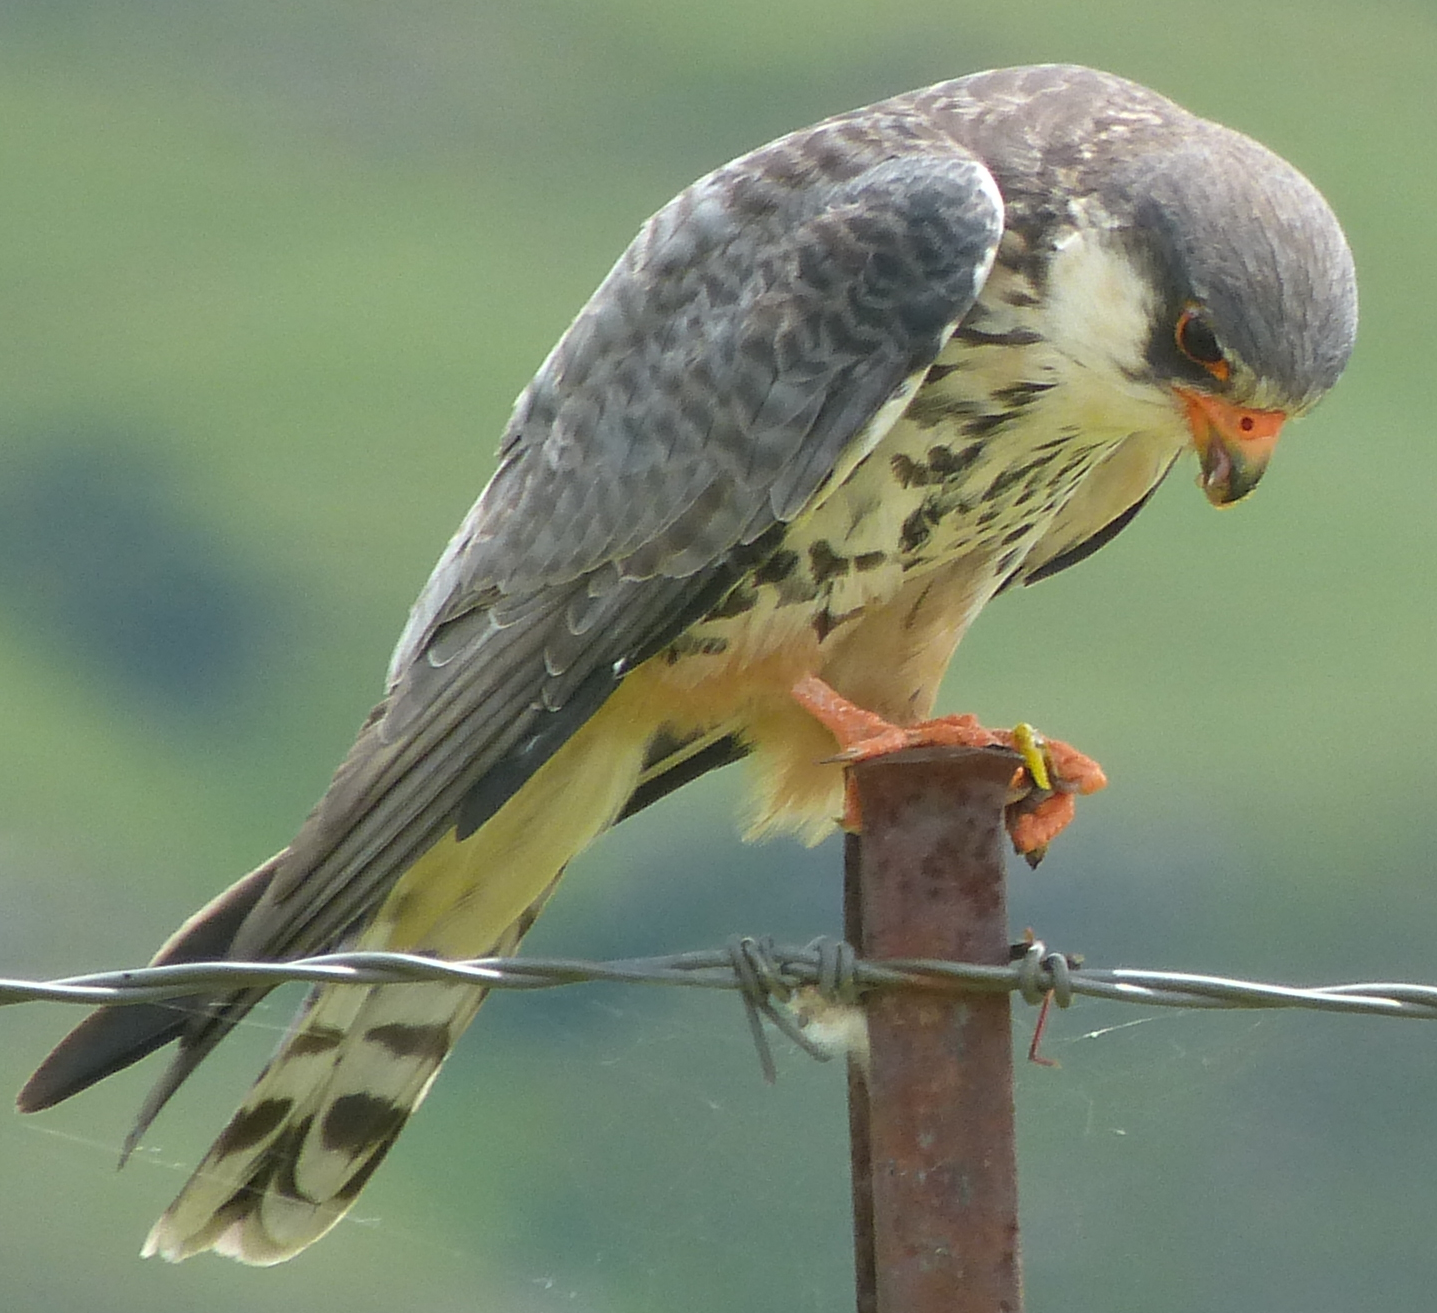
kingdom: Animalia
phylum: Chordata
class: Aves
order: Falconiformes
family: Falconidae
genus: Falco
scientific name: Falco amurensis
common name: Amur falcon
